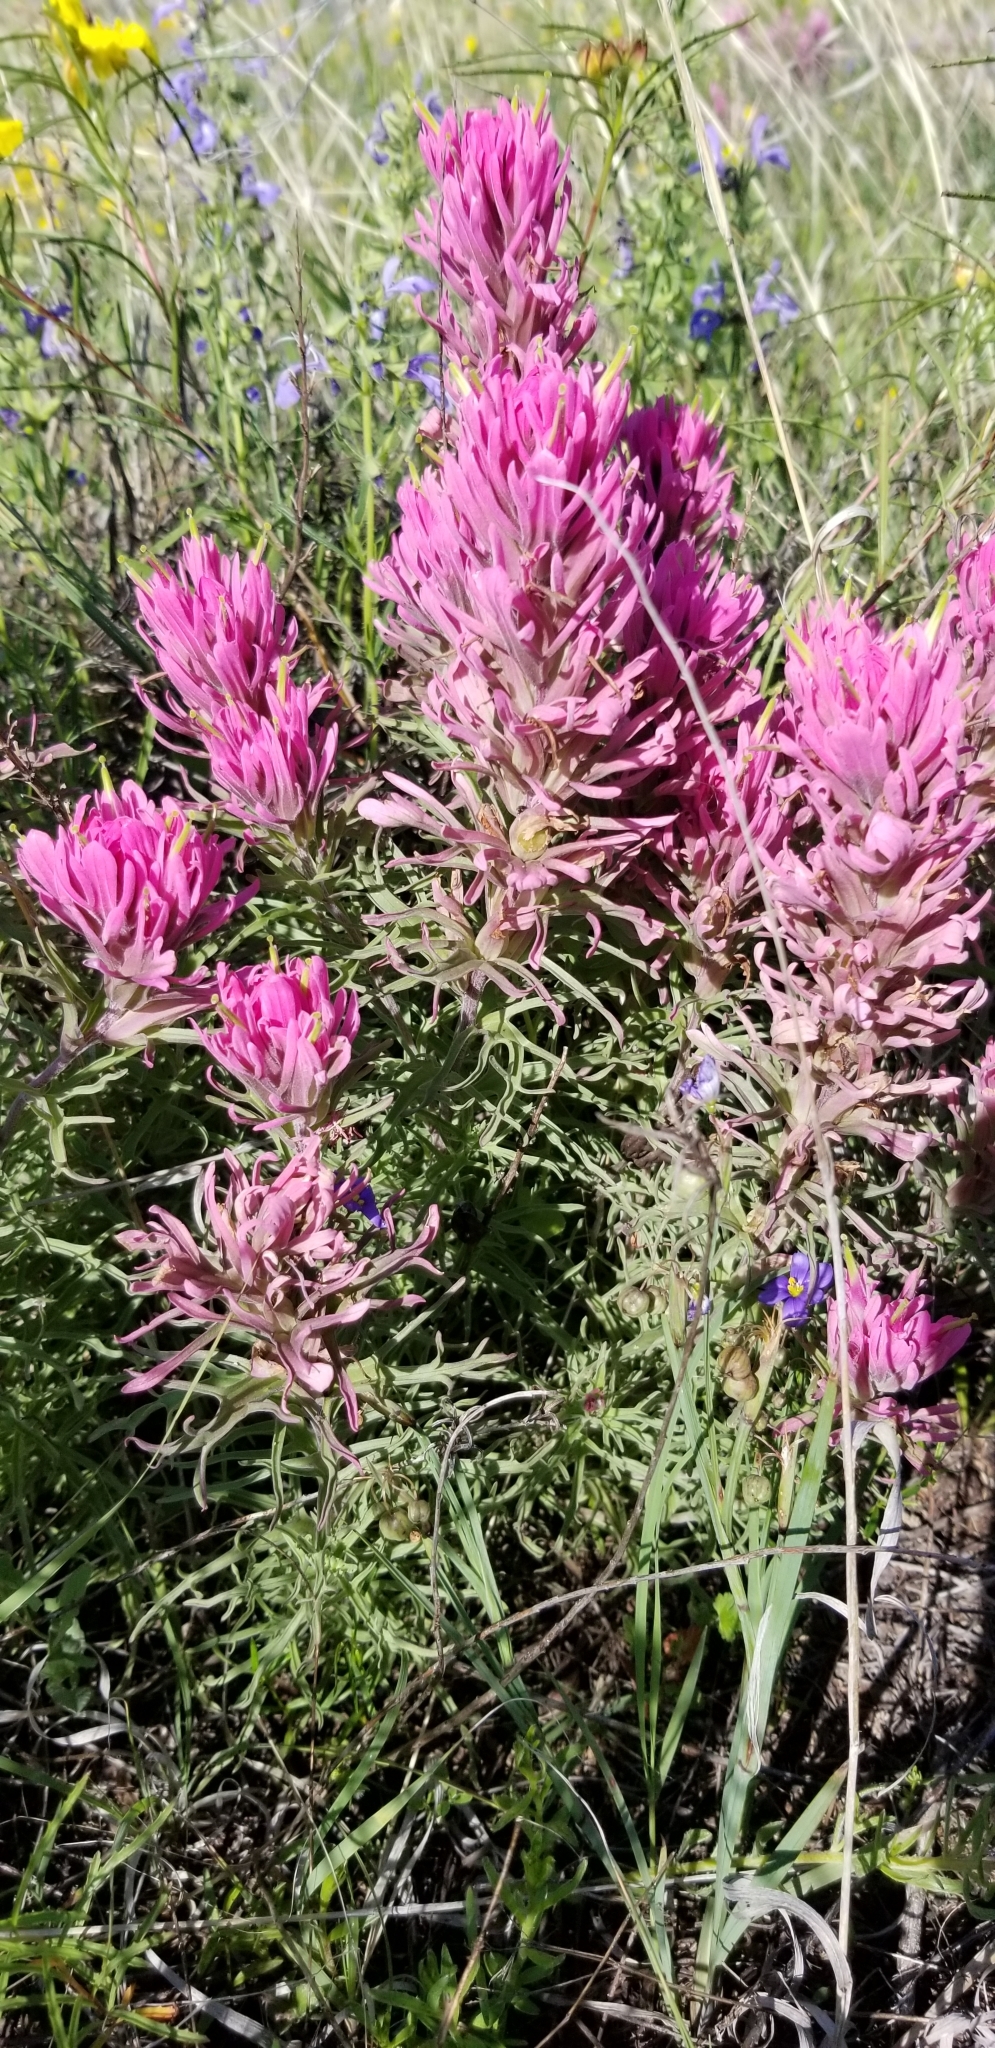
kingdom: Plantae
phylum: Tracheophyta
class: Magnoliopsida
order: Lamiales
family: Orobanchaceae
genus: Castilleja
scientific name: Castilleja purpurea
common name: Plains paintbrush
